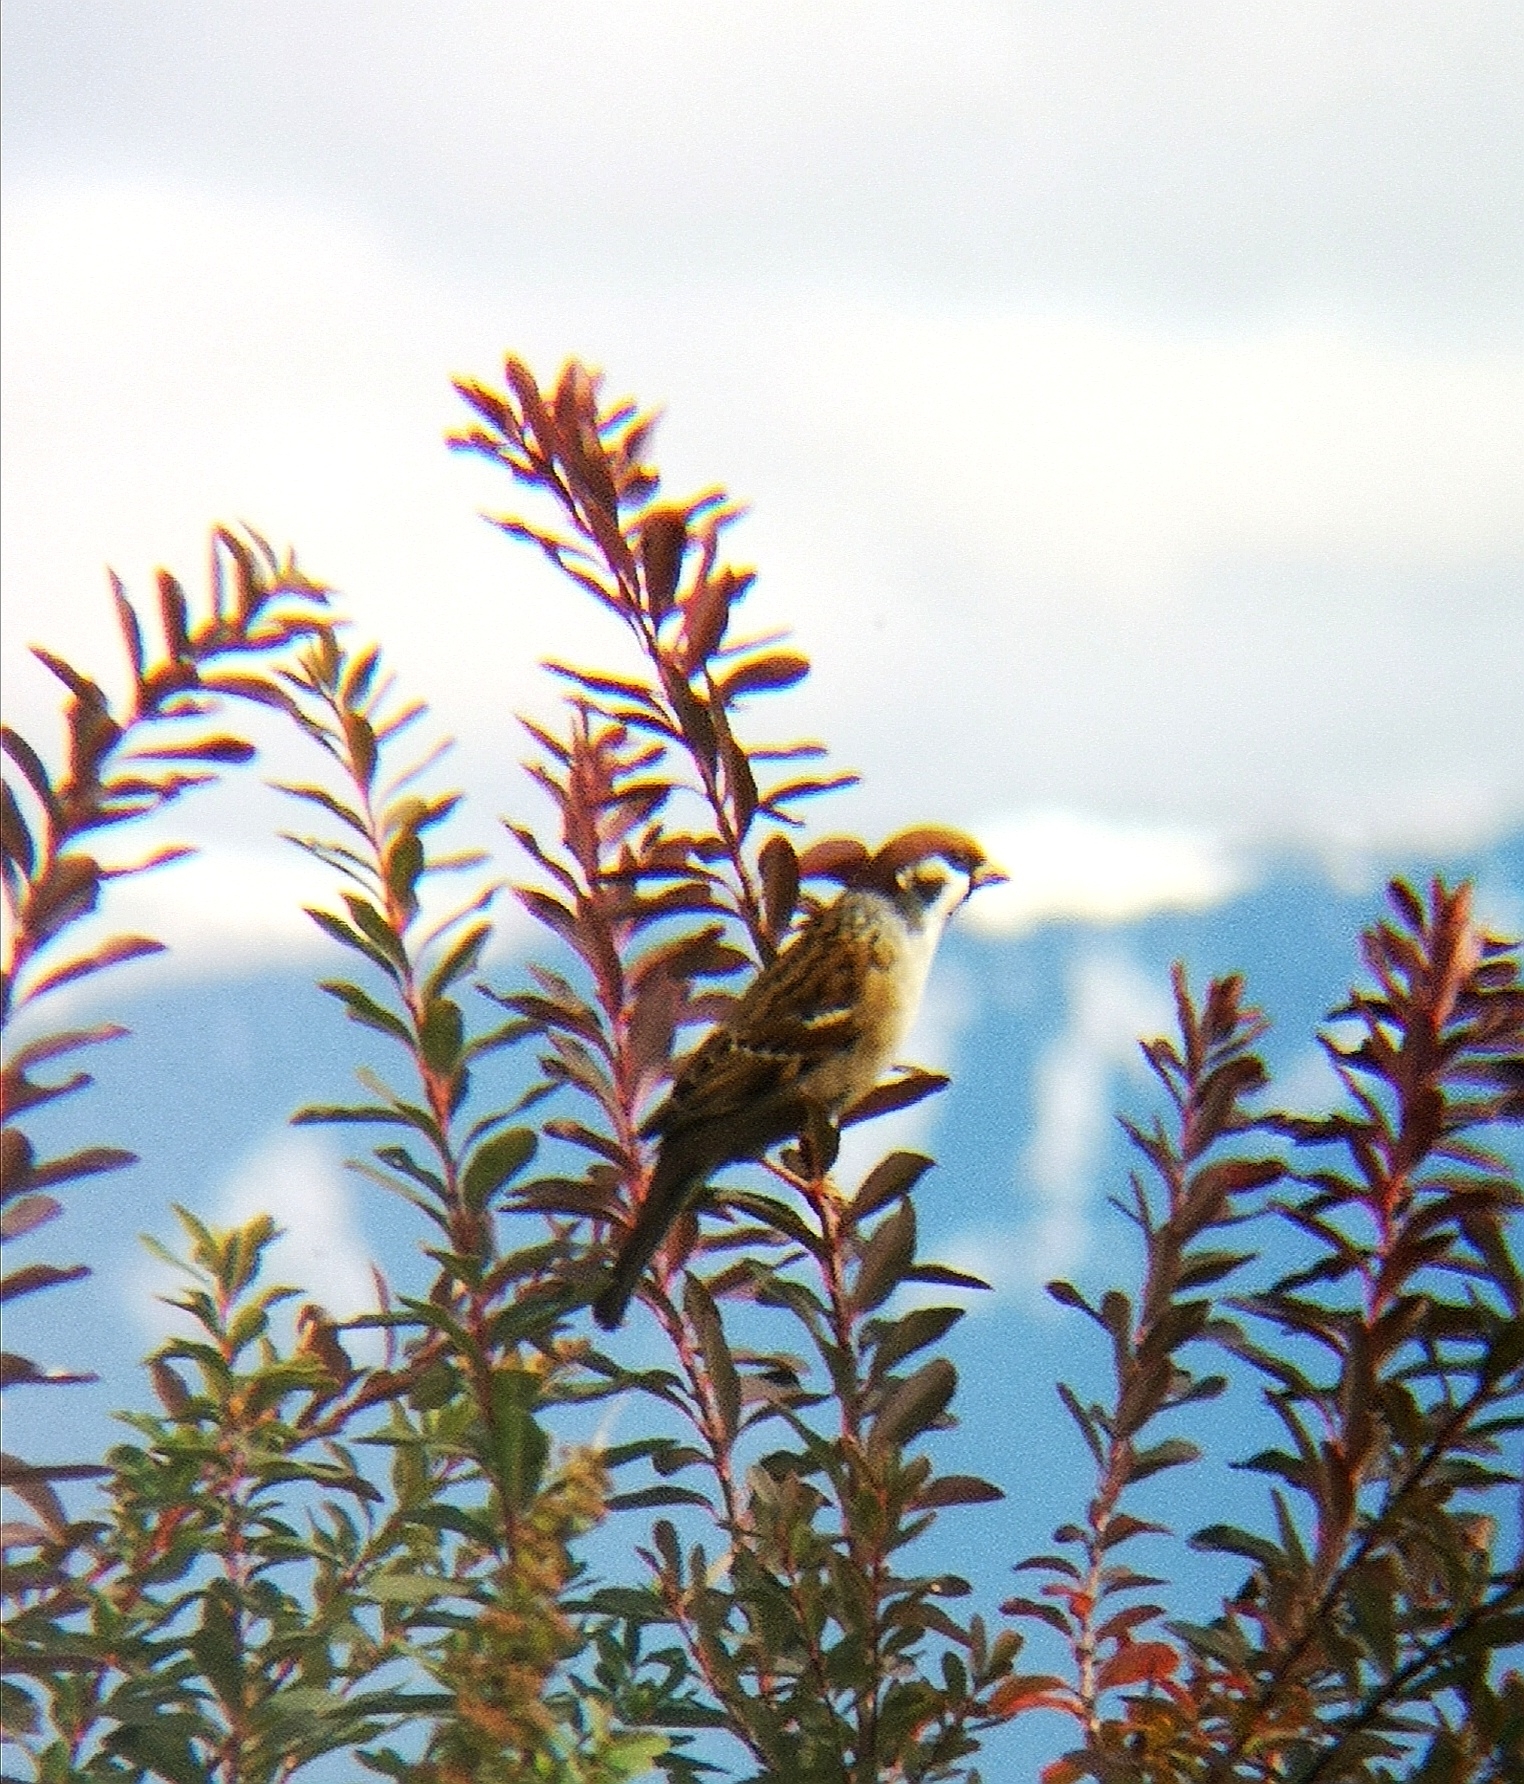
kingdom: Animalia
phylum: Chordata
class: Aves
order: Passeriformes
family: Passeridae
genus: Passer
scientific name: Passer montanus
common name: Eurasian tree sparrow
